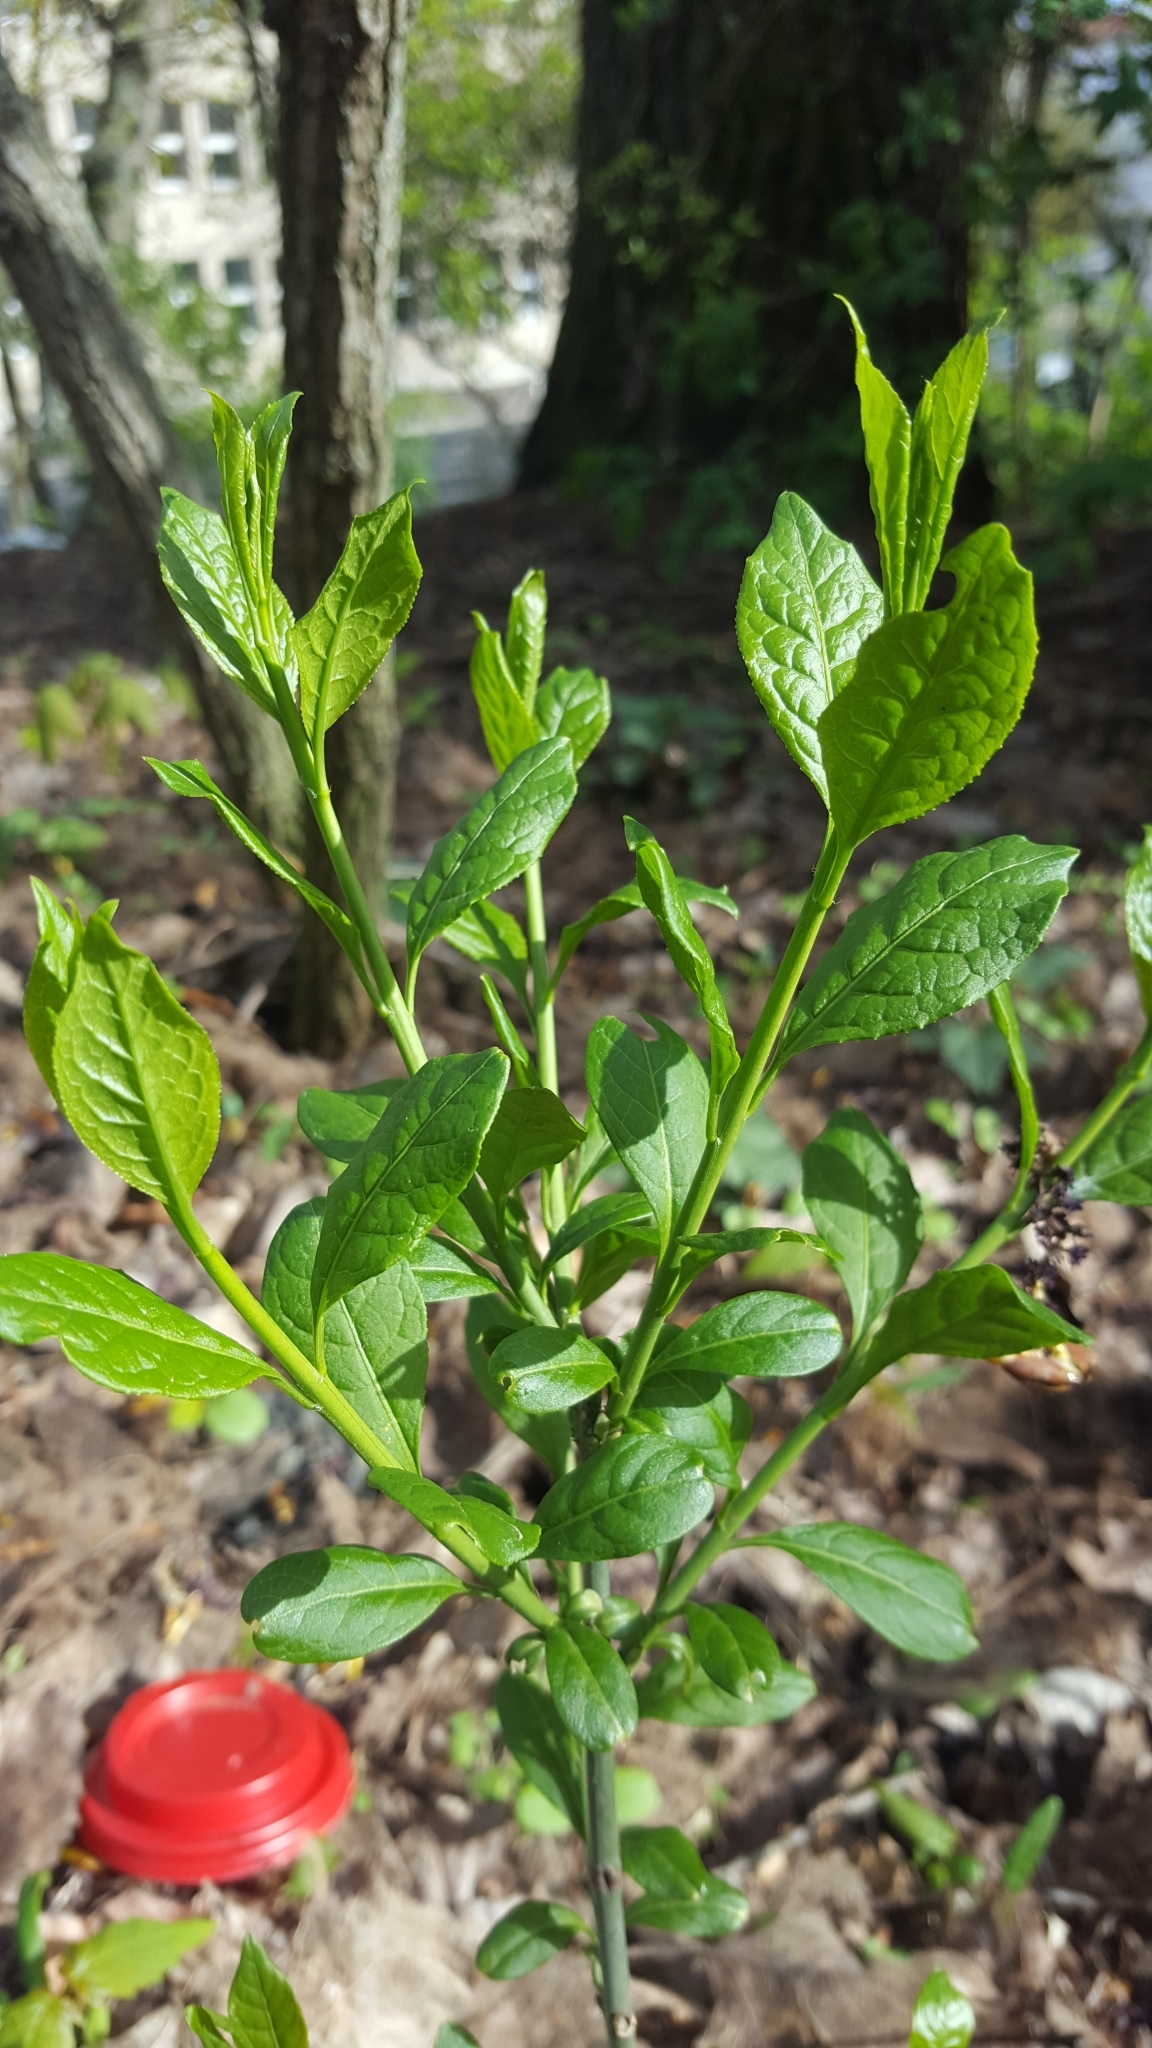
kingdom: Plantae
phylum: Tracheophyta
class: Magnoliopsida
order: Celastrales
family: Celastraceae
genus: Euonymus
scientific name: Euonymus europaeus
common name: Spindle
